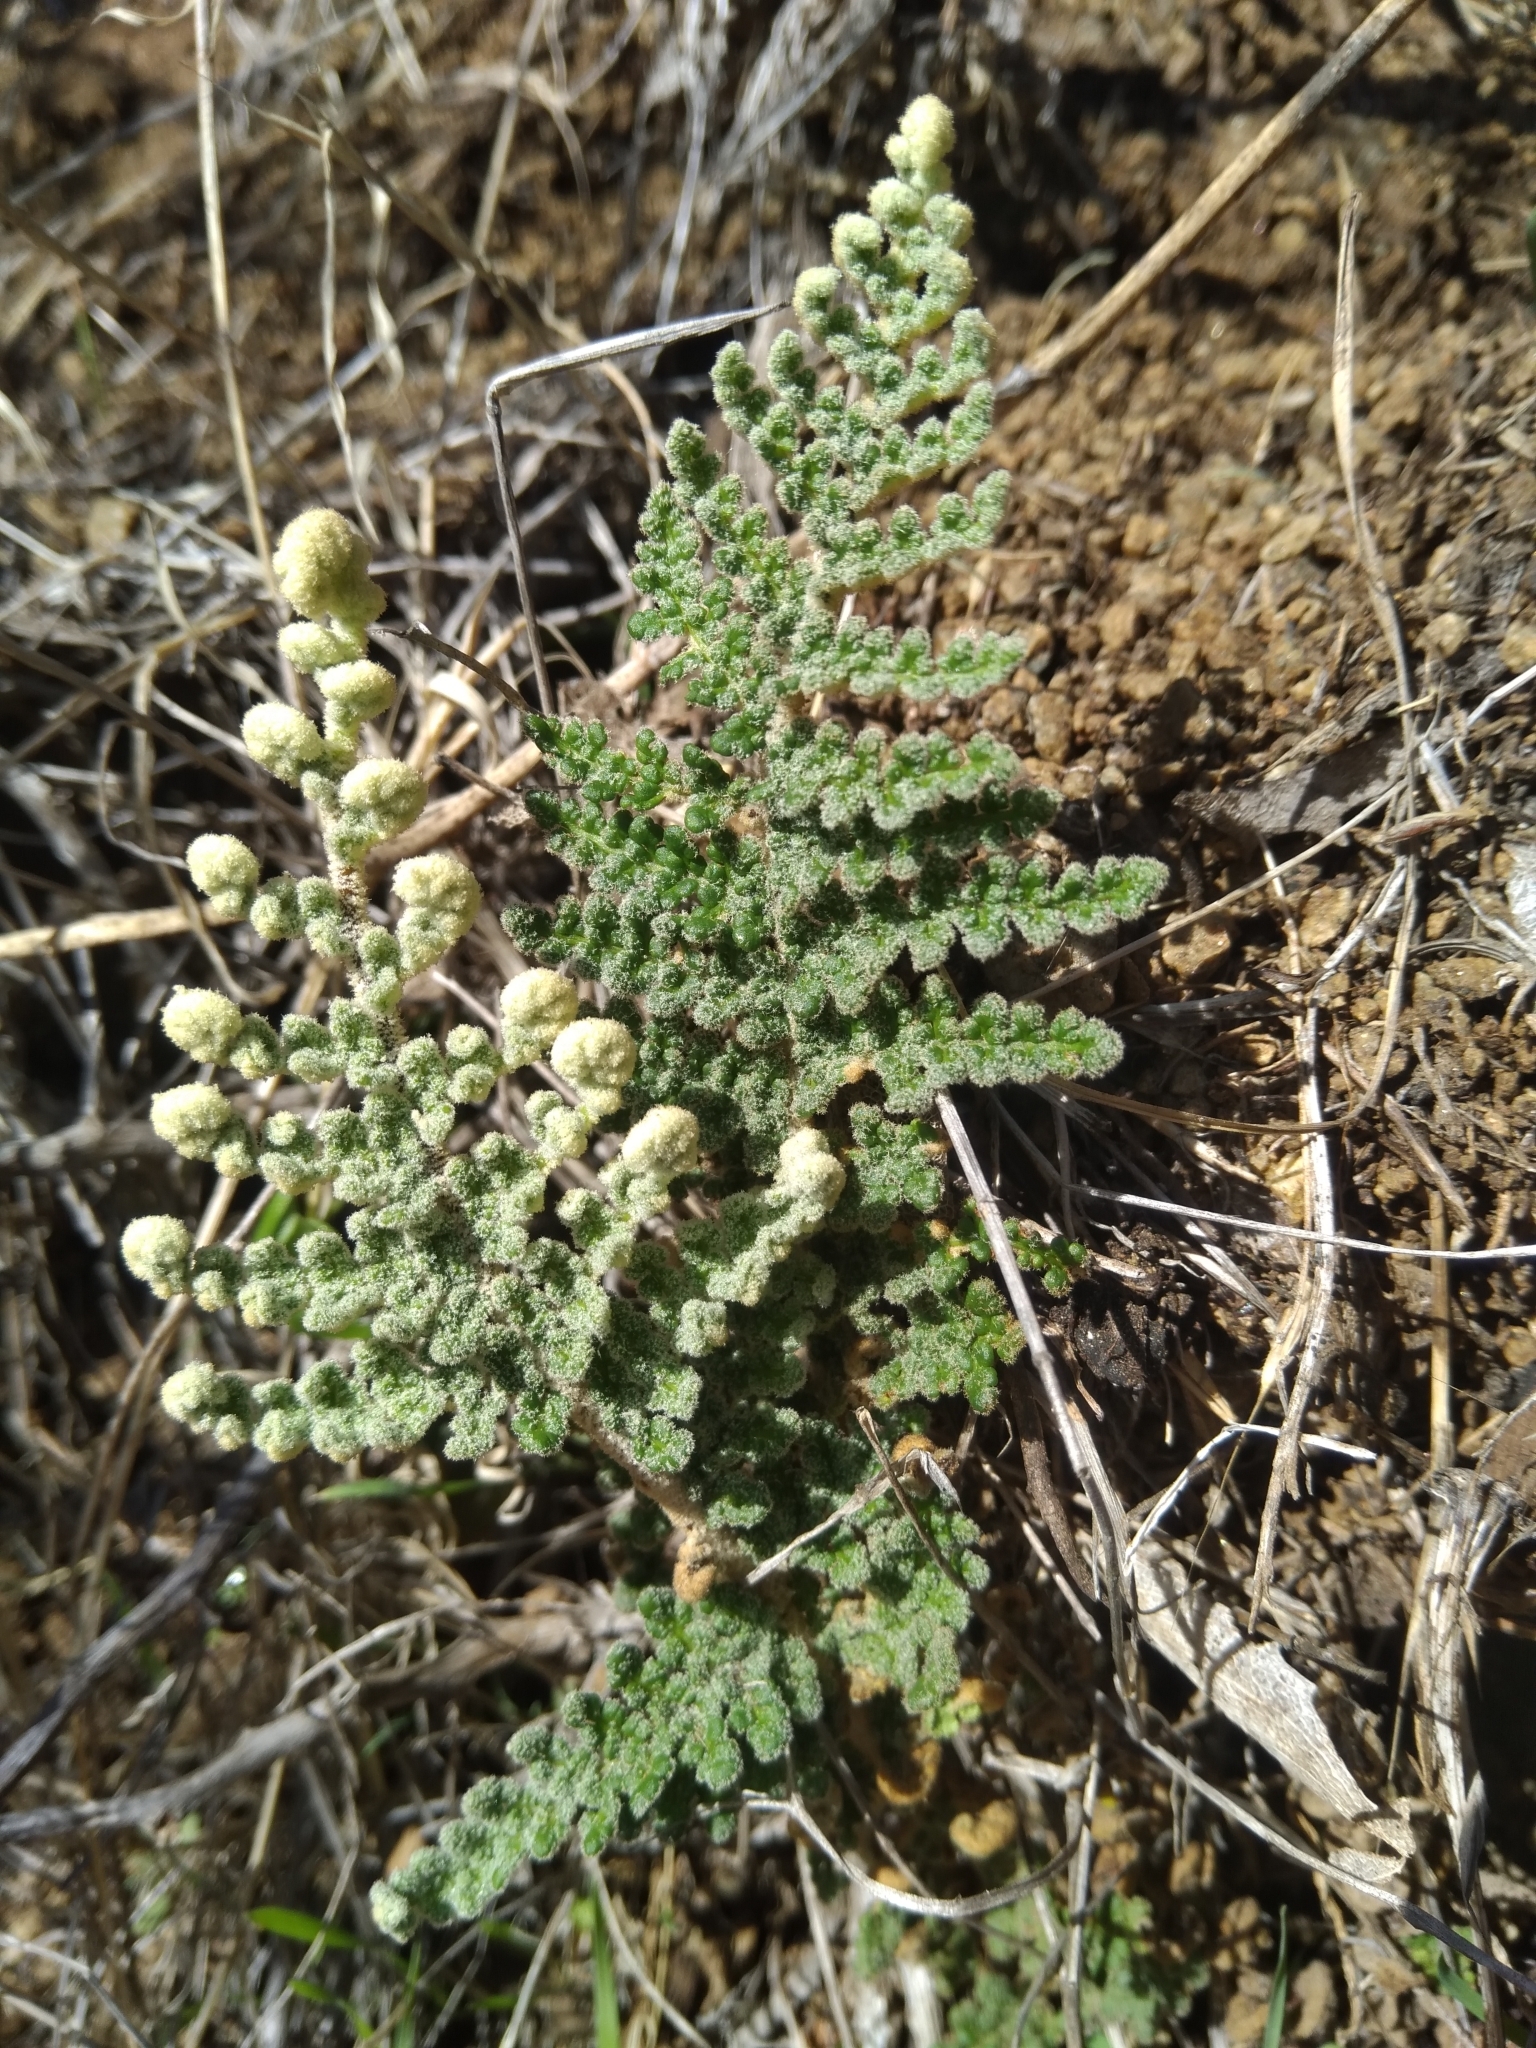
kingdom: Plantae
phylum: Tracheophyta
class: Polypodiopsida
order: Polypodiales
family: Pteridaceae
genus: Cheilanthes
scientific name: Cheilanthes hypoleuca
